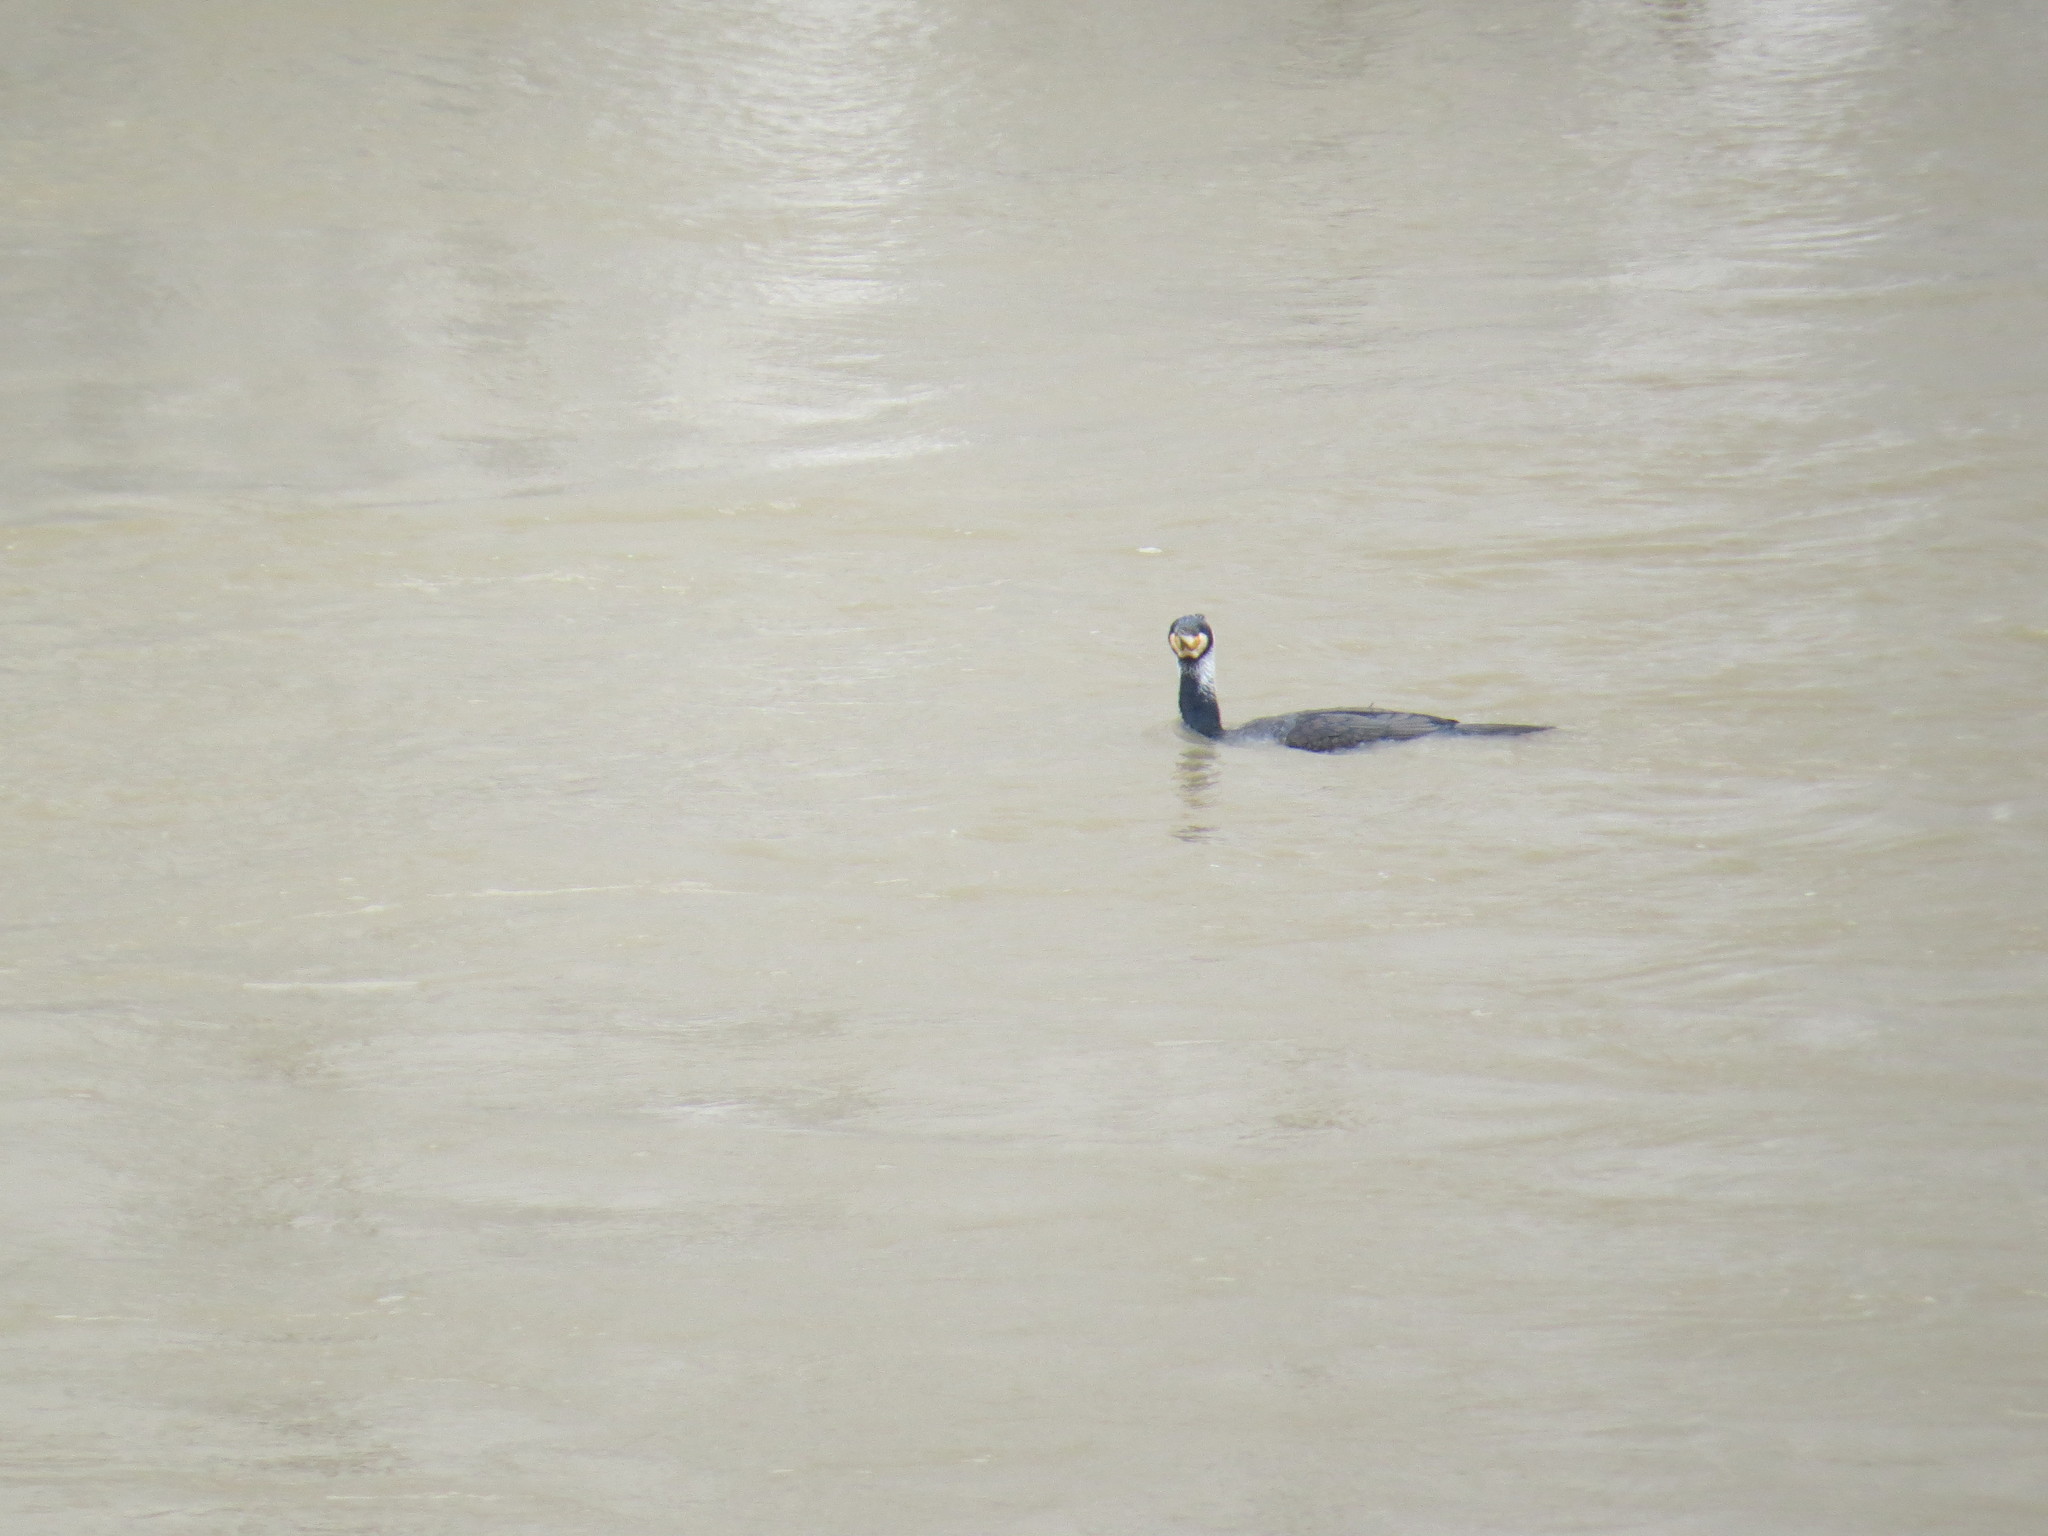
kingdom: Animalia
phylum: Chordata
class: Aves
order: Suliformes
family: Phalacrocoracidae
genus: Phalacrocorax
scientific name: Phalacrocorax carbo
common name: Great cormorant
